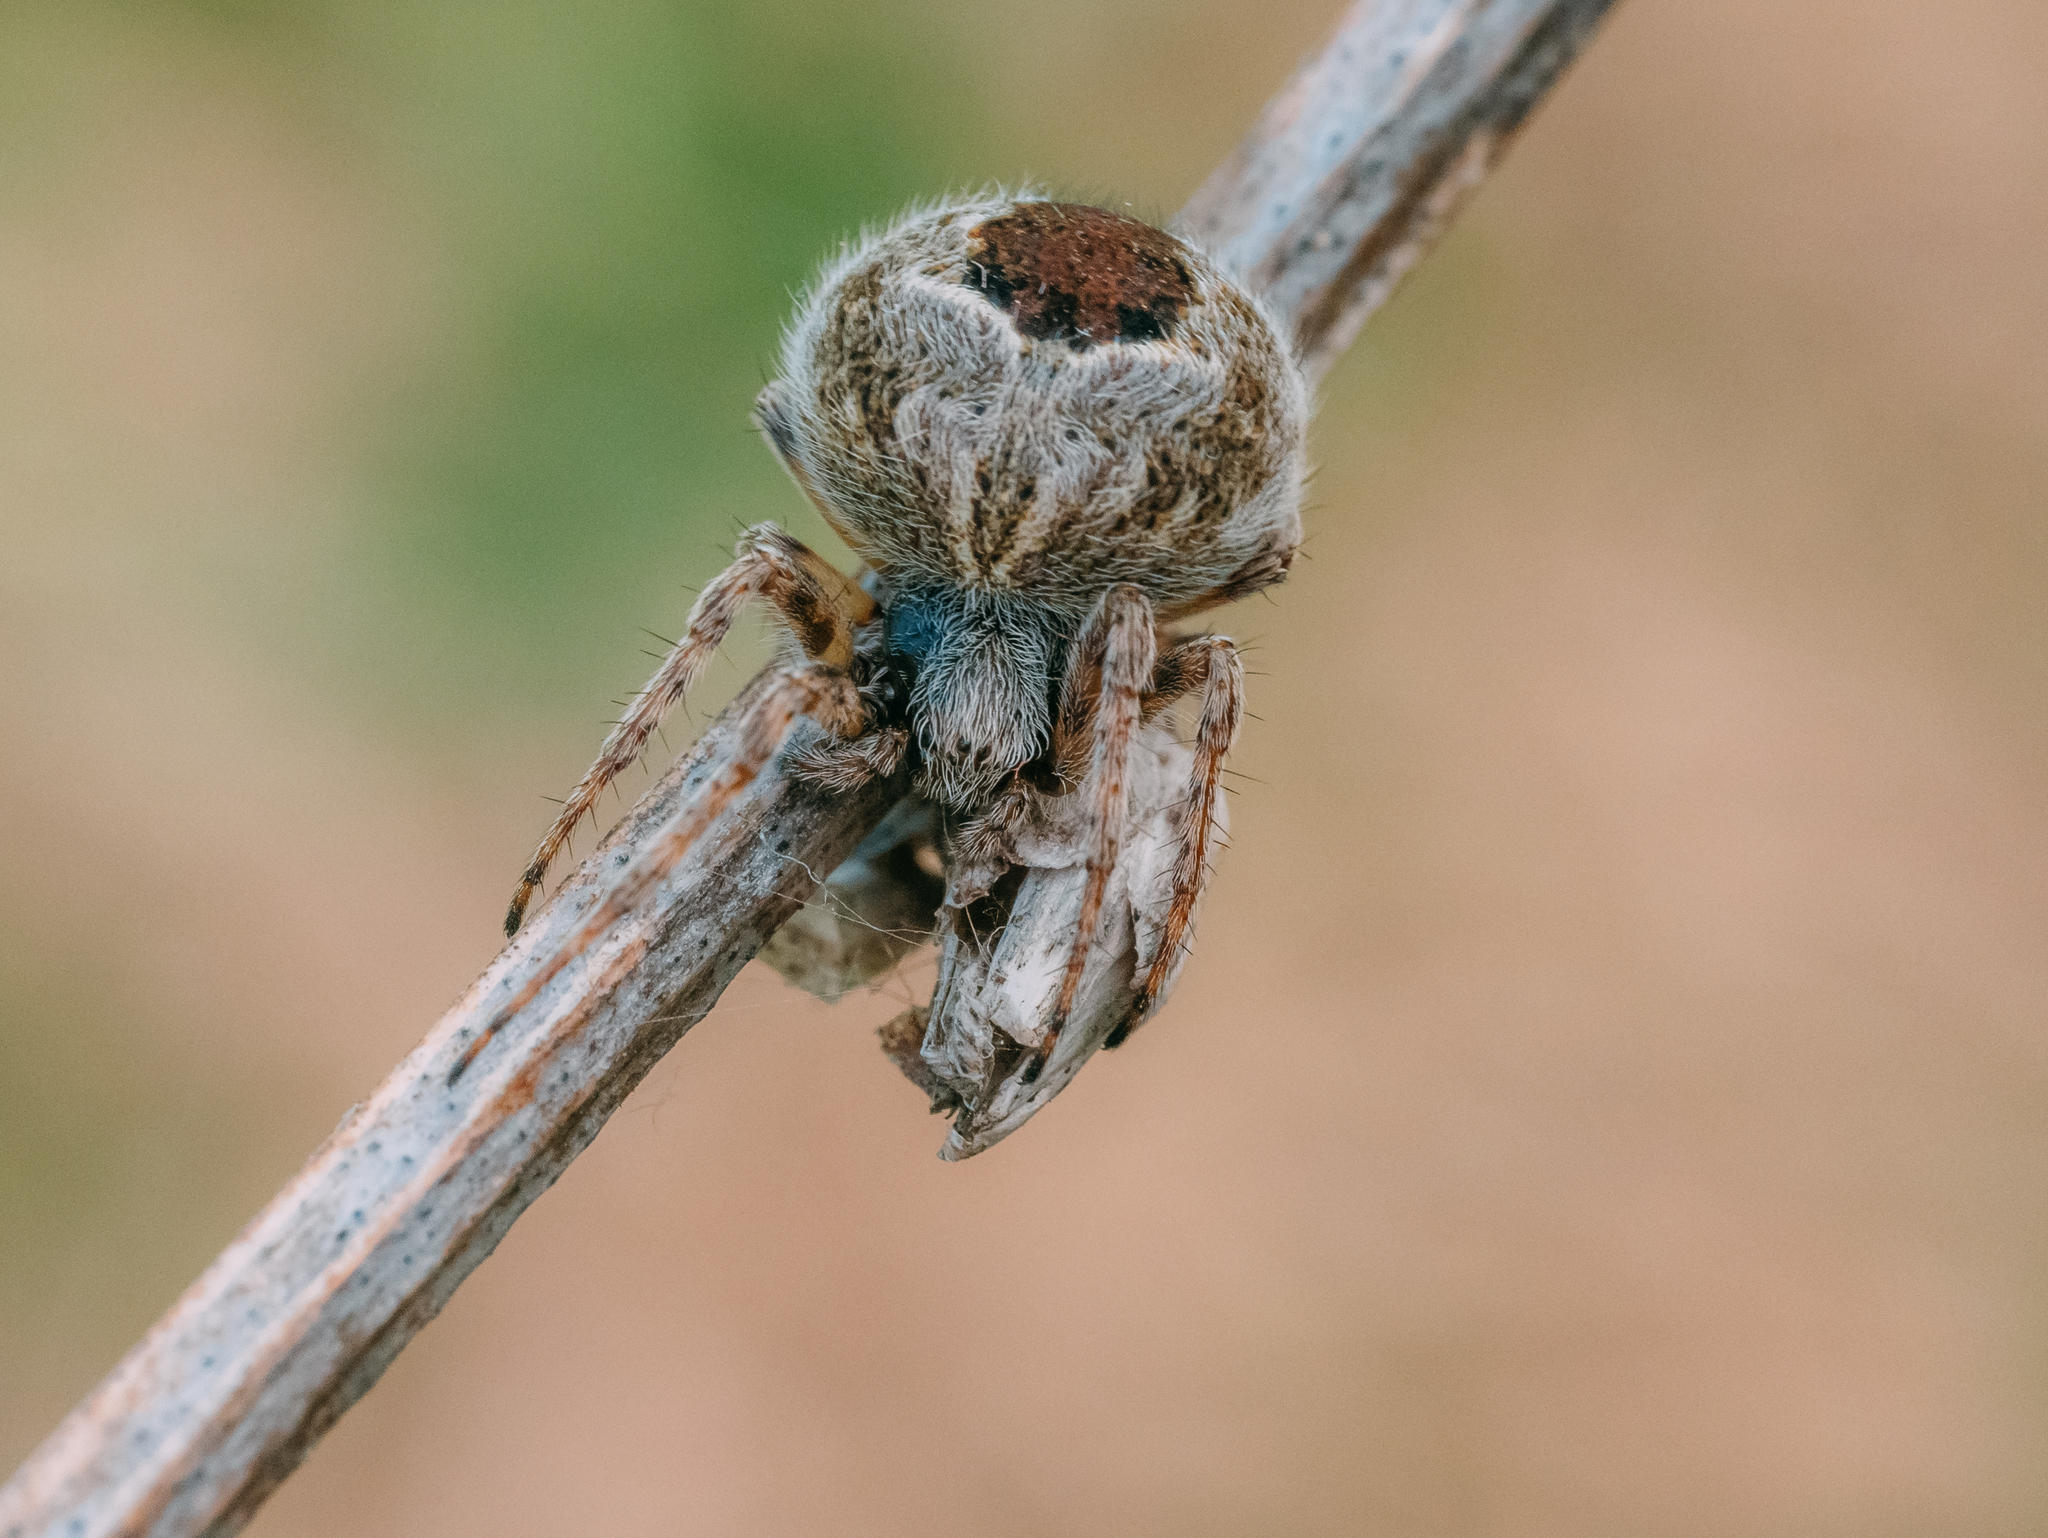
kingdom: Animalia
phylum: Arthropoda
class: Arachnida
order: Araneae
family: Araneidae
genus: Agalenatea
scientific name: Agalenatea redii
